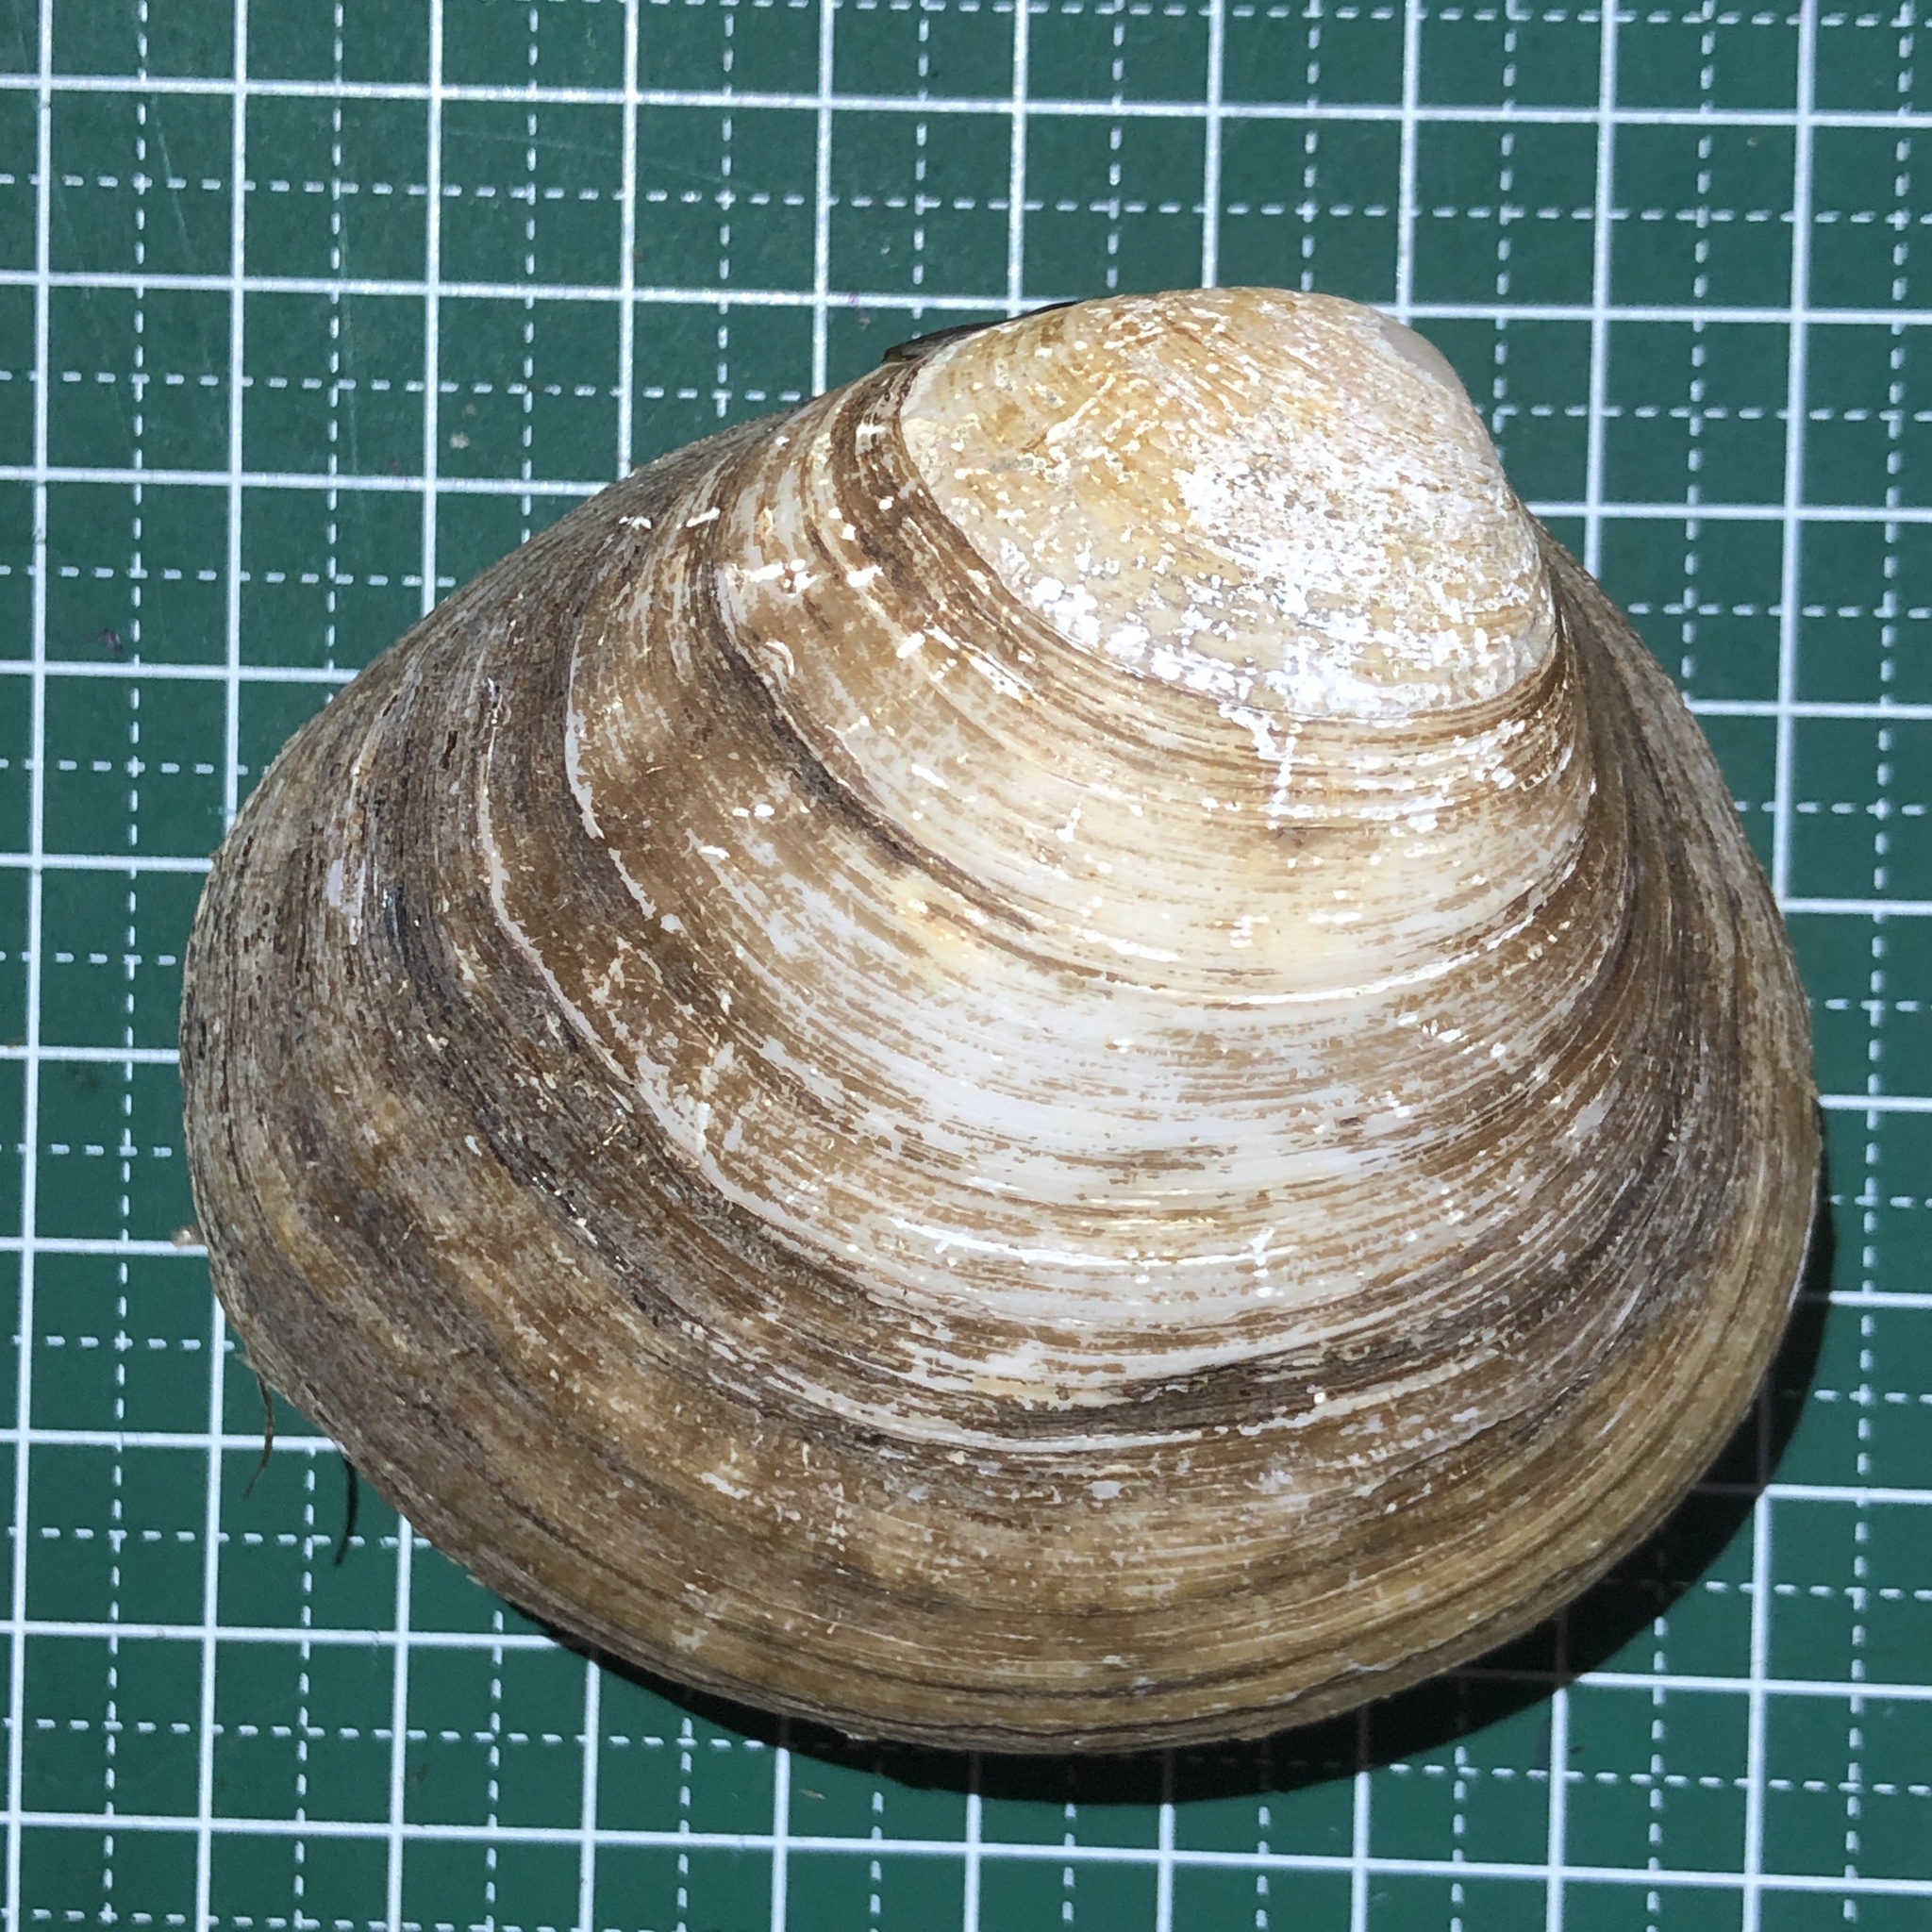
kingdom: Animalia
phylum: Mollusca
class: Bivalvia
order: Venerida
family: Cyrenidae
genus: Geloina
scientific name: Geloina expansa
